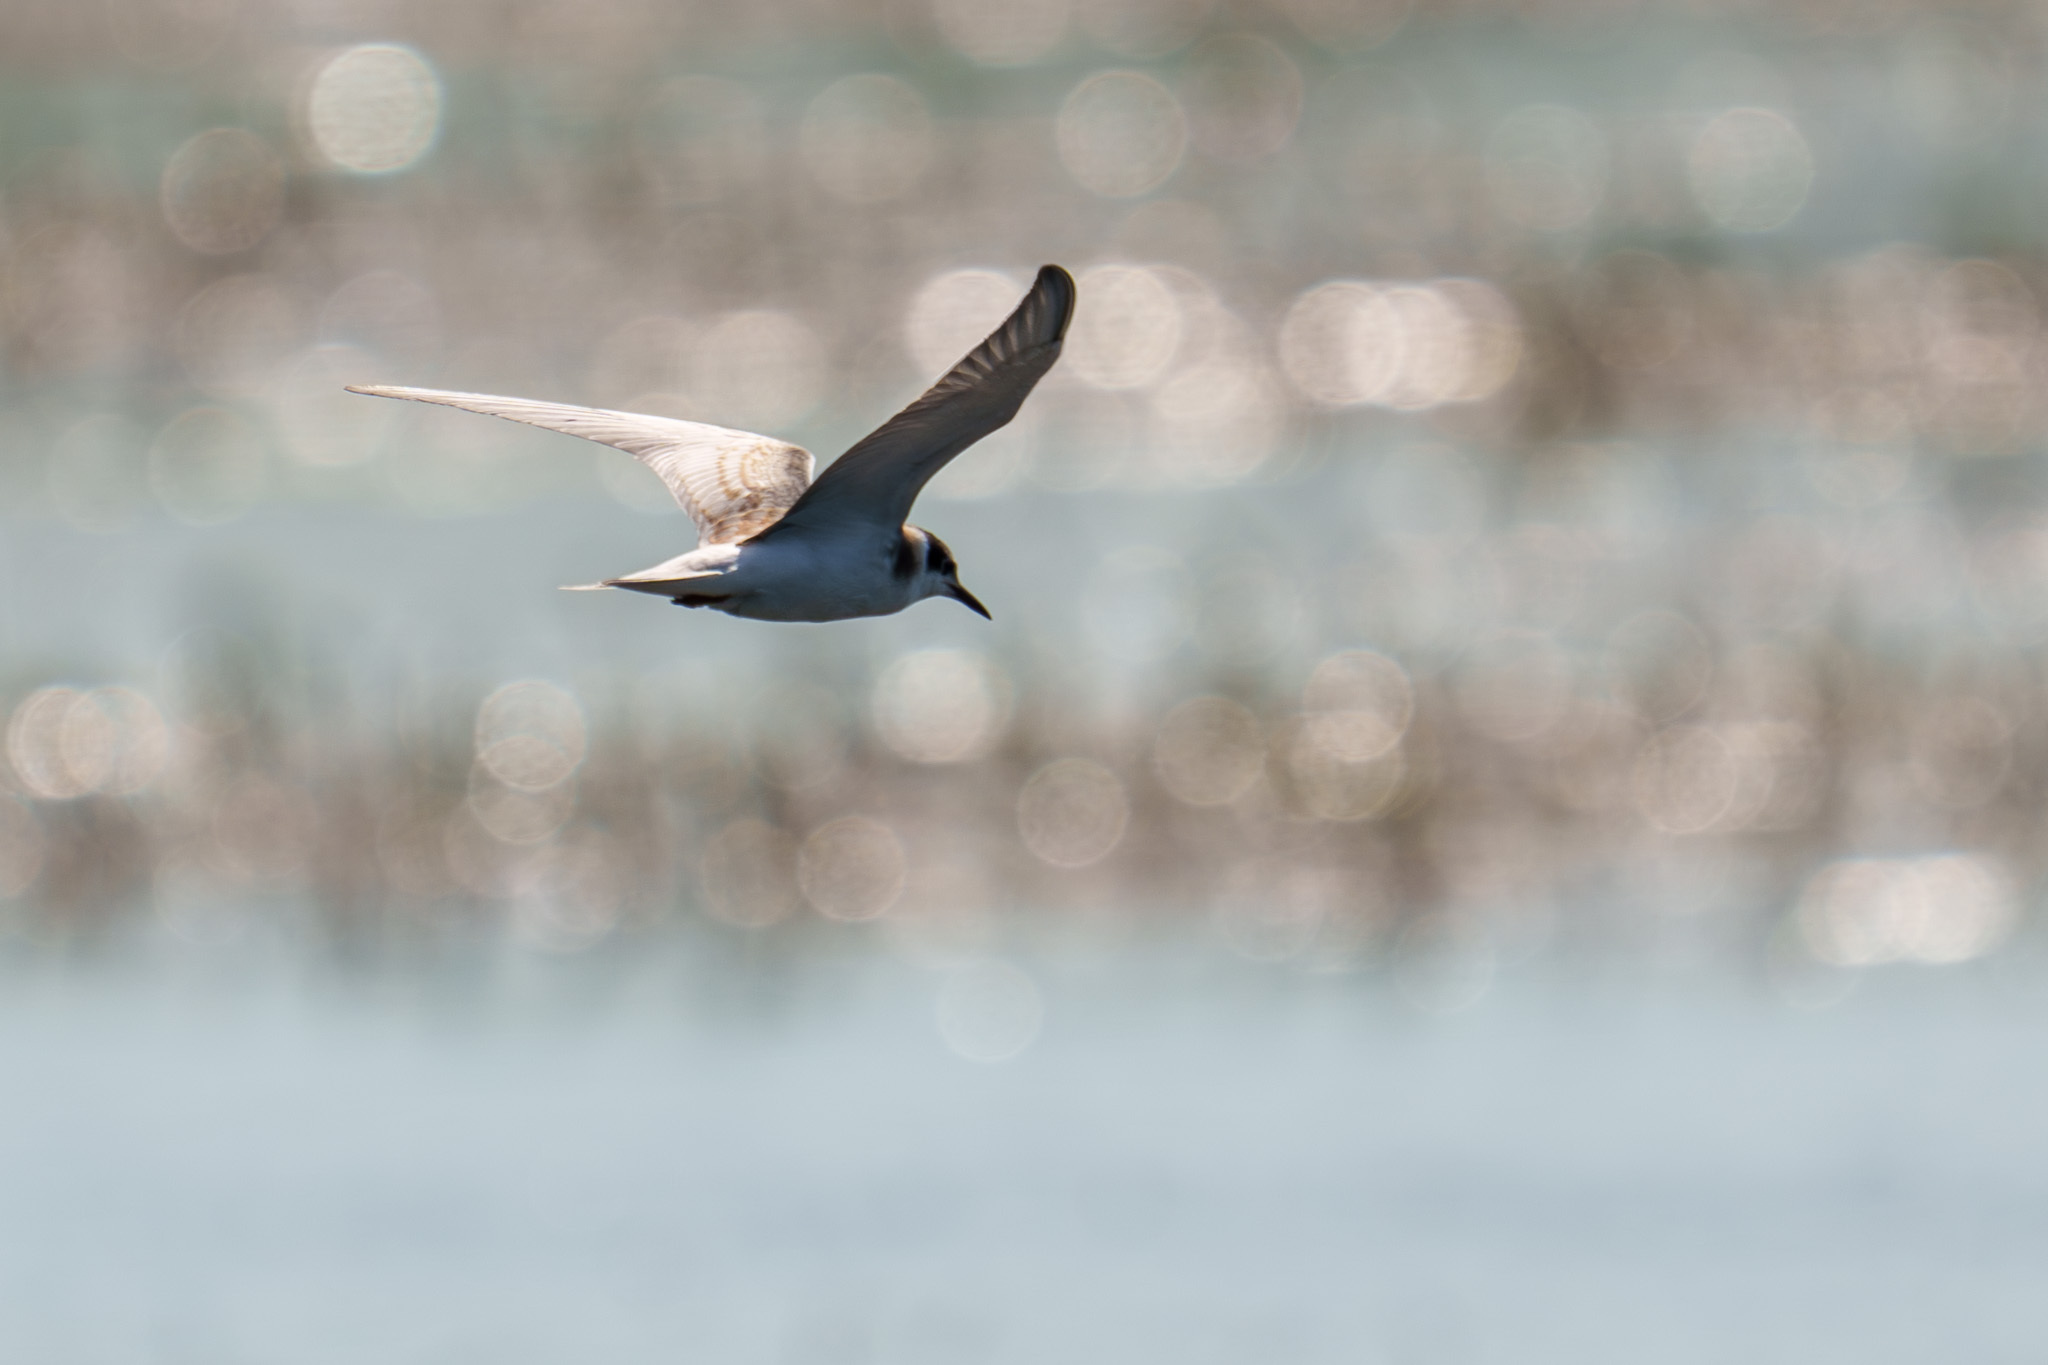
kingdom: Animalia
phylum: Chordata
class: Aves
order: Charadriiformes
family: Laridae
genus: Chlidonias
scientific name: Chlidonias niger
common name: Black tern
